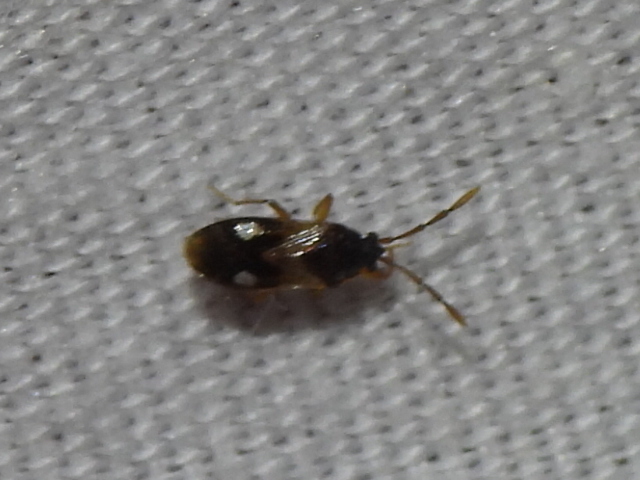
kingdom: Animalia
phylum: Arthropoda
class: Insecta
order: Hemiptera
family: Rhyparochromidae
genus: Tempyra
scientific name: Tempyra biguttula
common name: Seed bug
